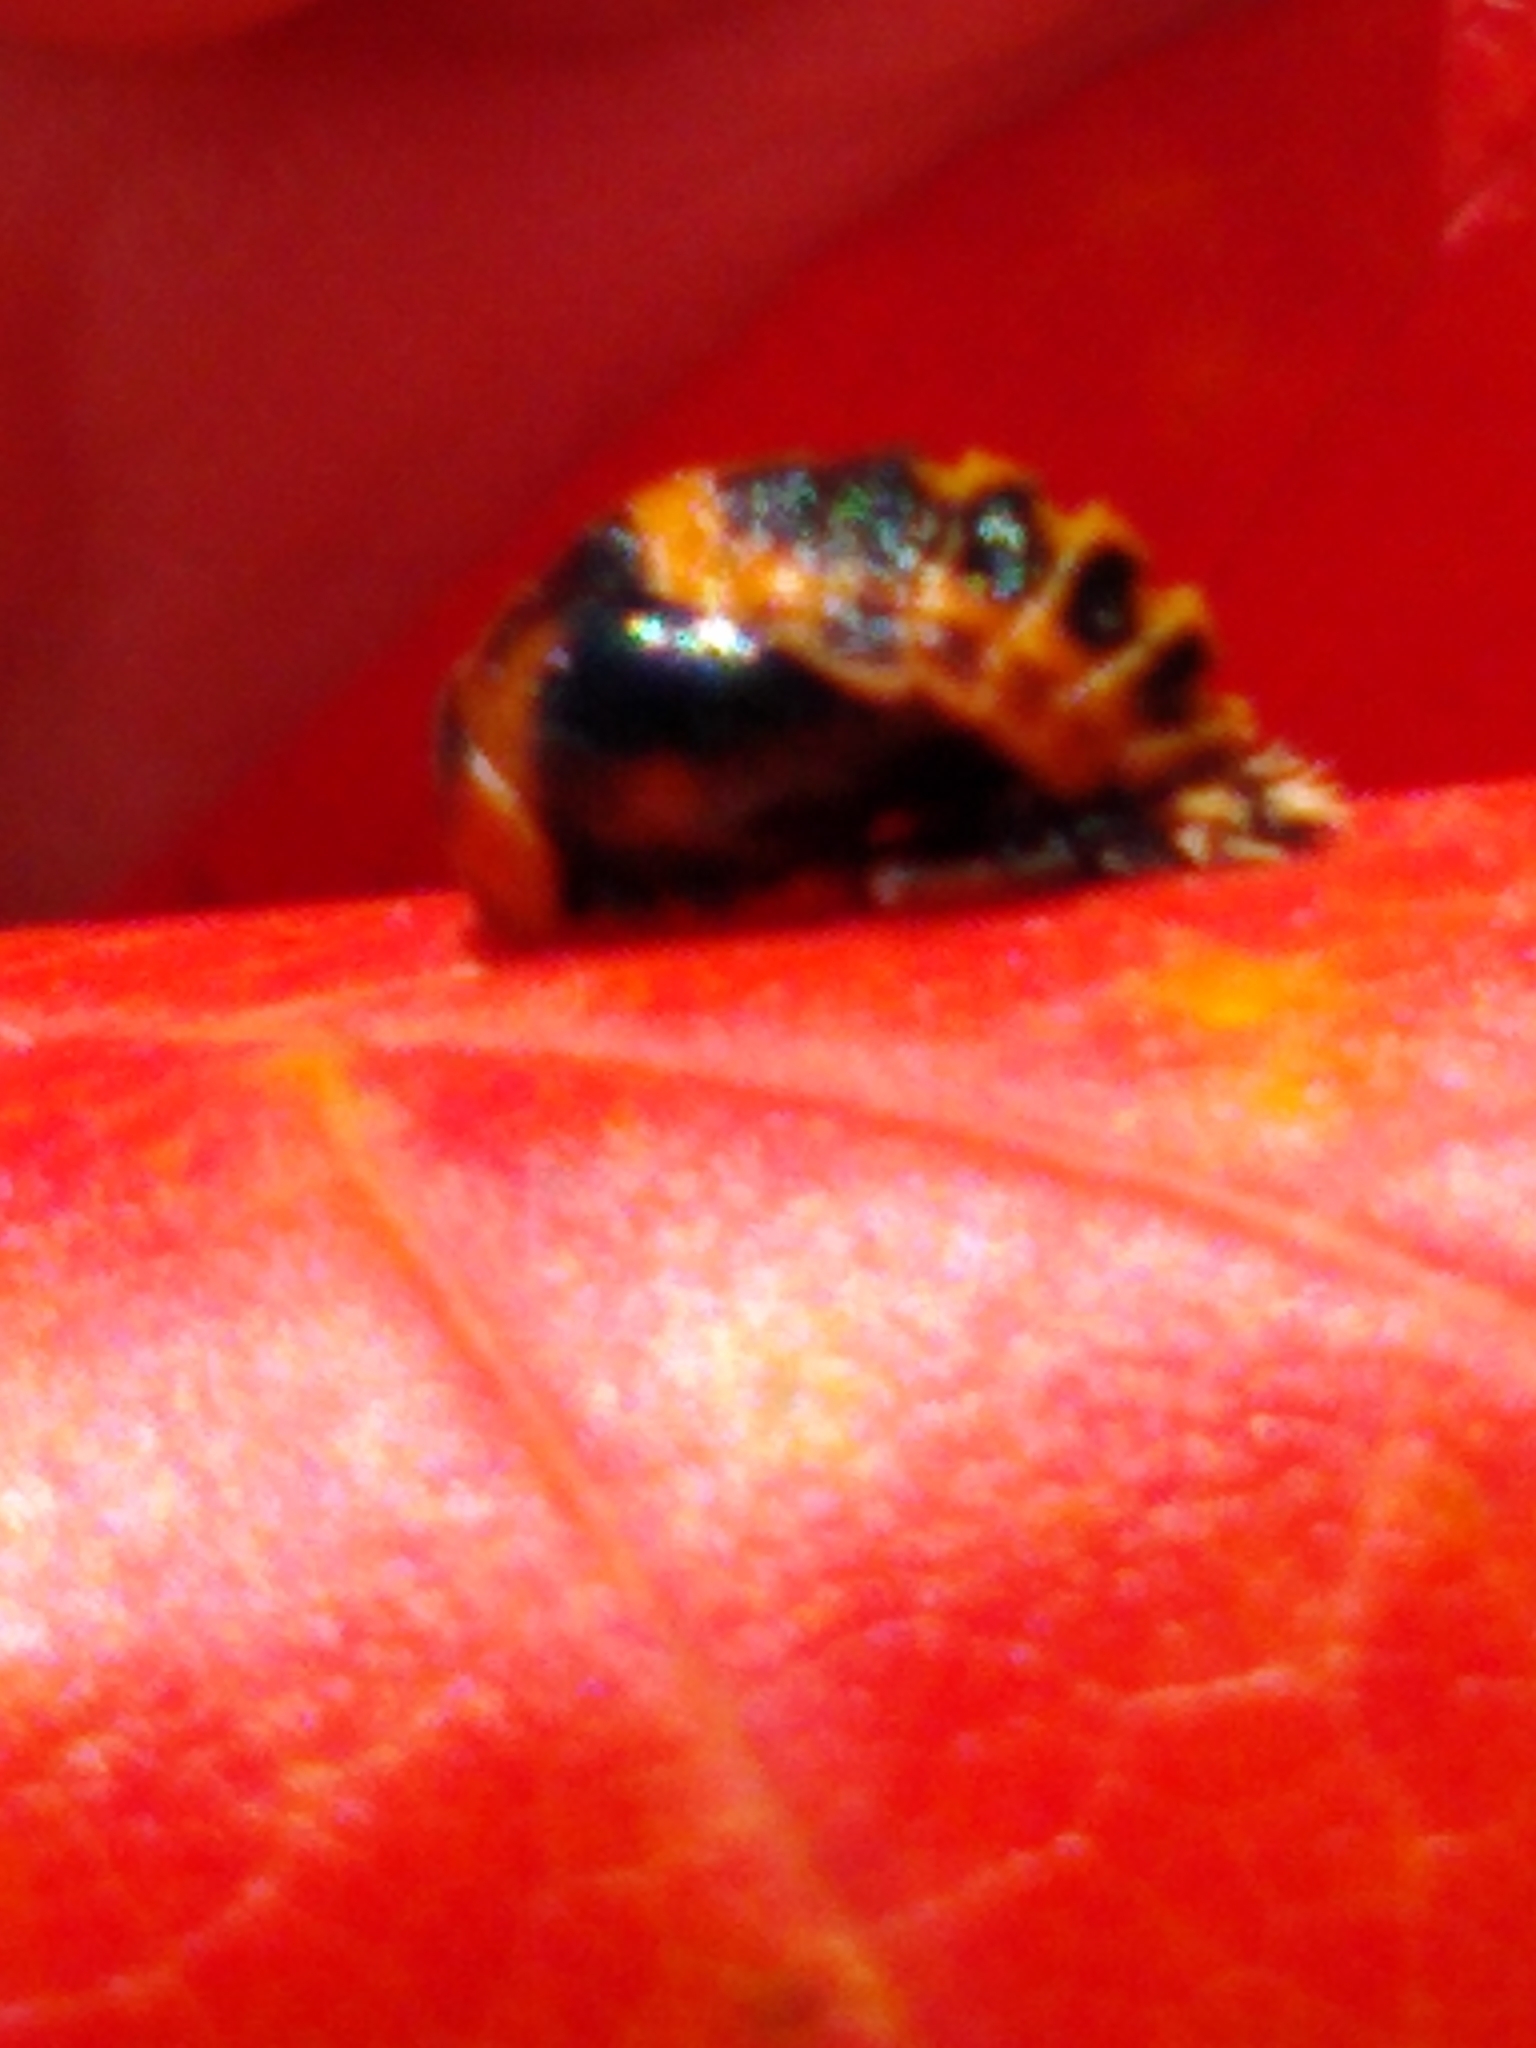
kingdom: Animalia
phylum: Arthropoda
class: Insecta
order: Coleoptera
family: Coccinellidae
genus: Harmonia
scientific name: Harmonia axyridis
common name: Harlequin ladybird
